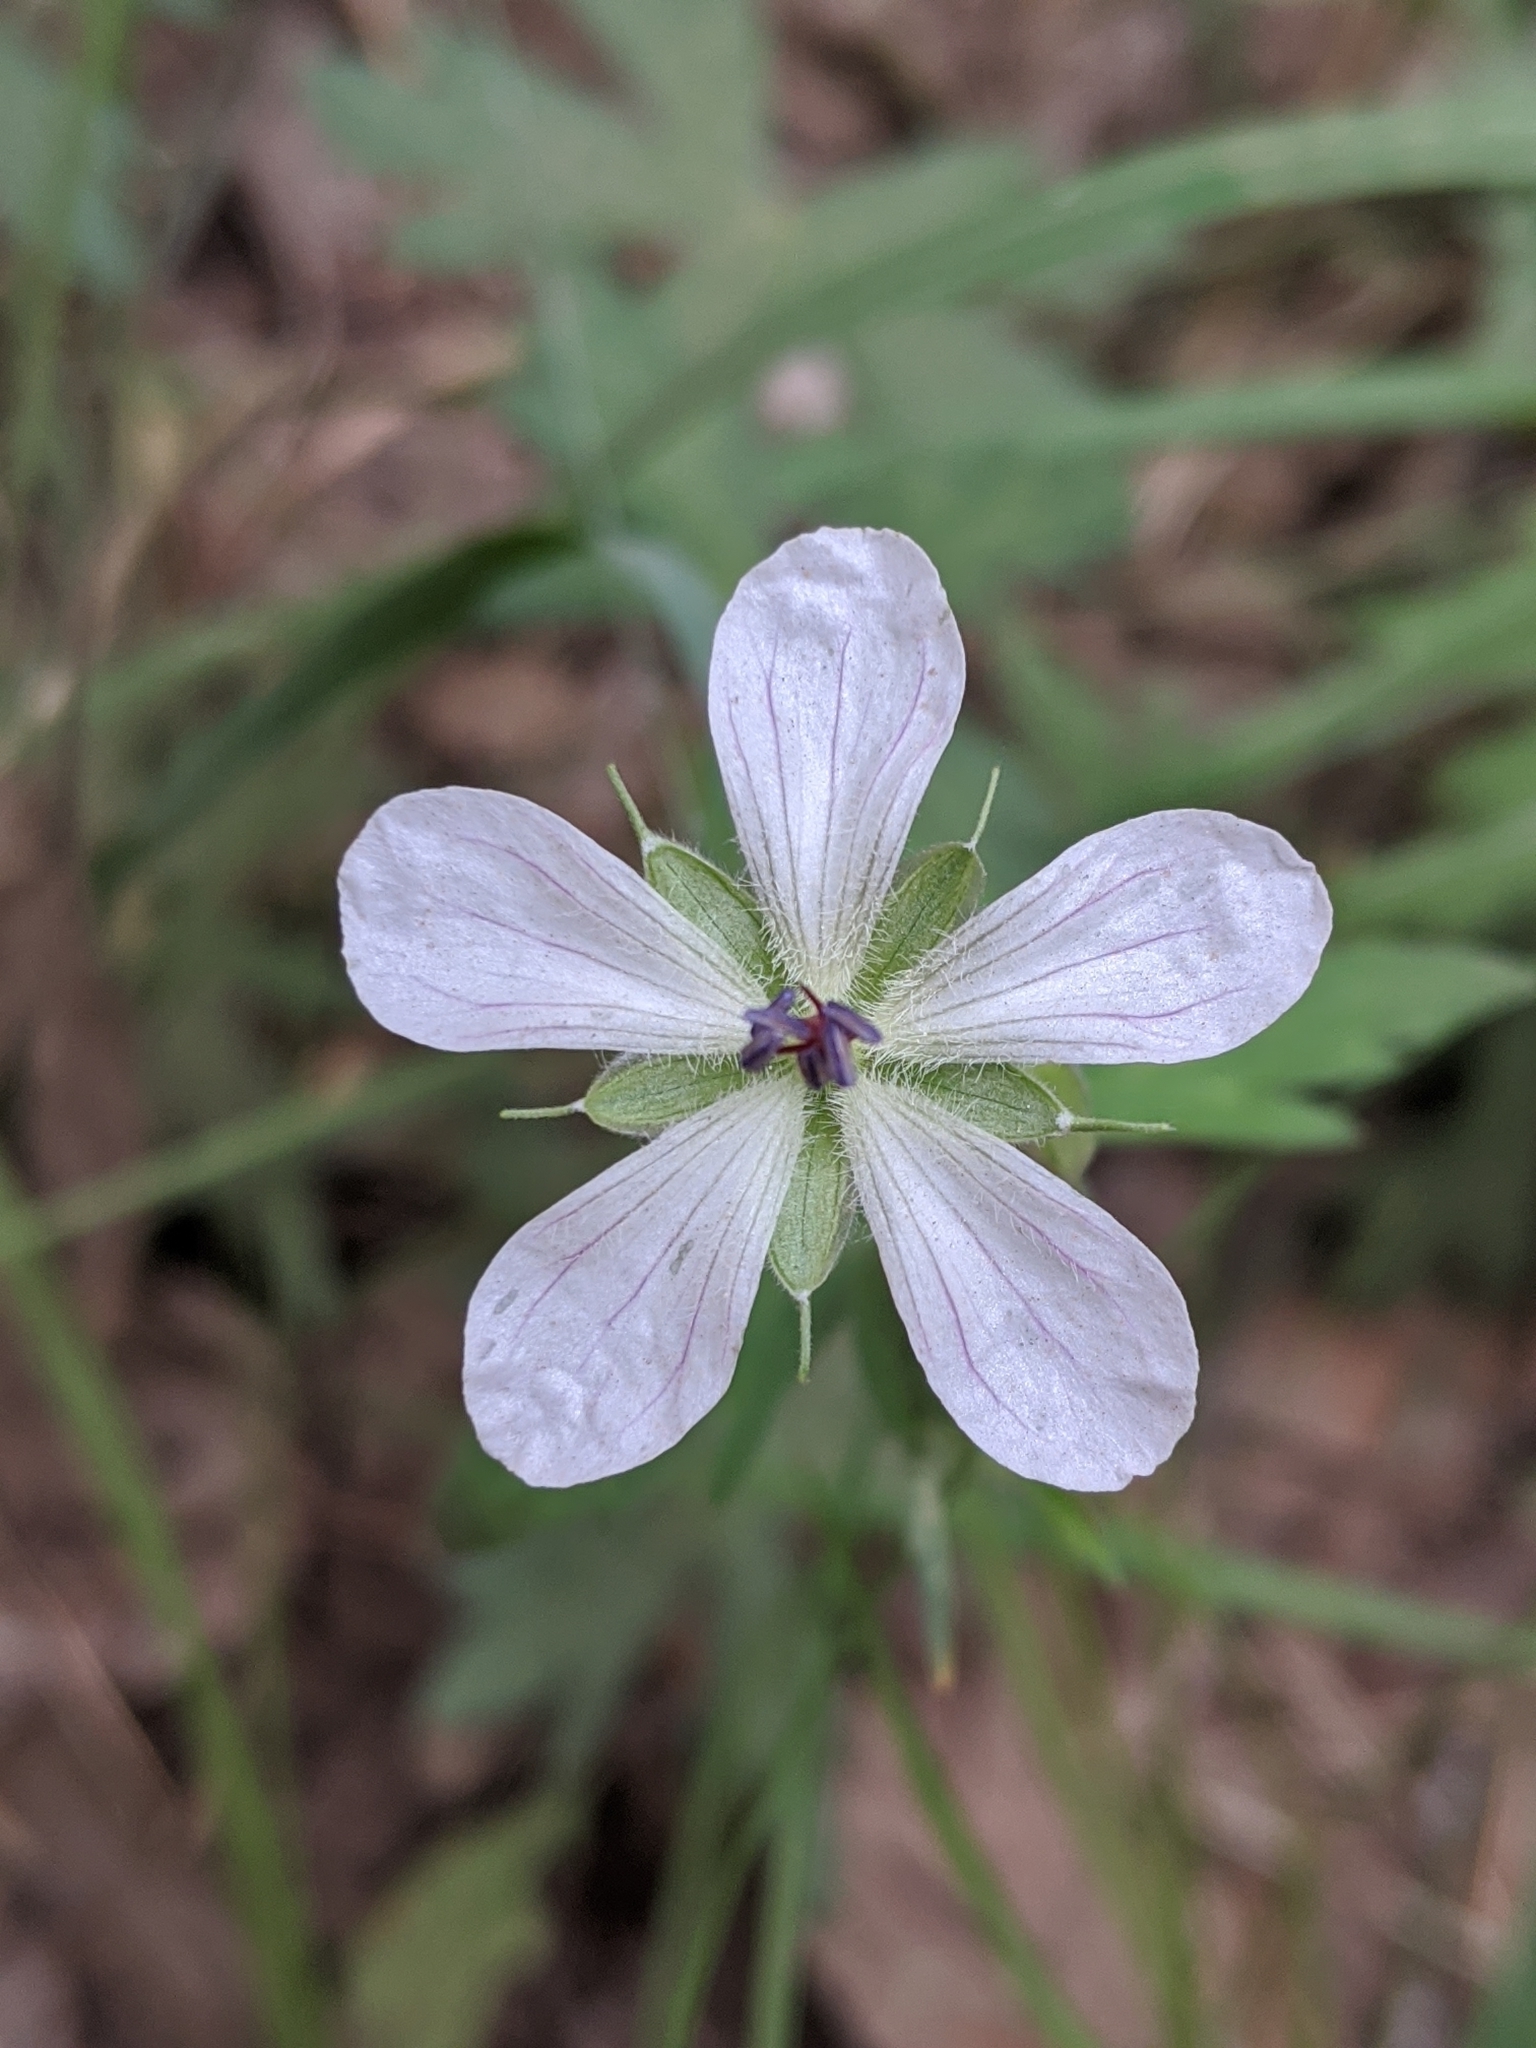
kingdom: Plantae
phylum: Tracheophyta
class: Magnoliopsida
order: Geraniales
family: Geraniaceae
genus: Geranium
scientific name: Geranium richardsonii
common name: Richardson's crane's-bill
